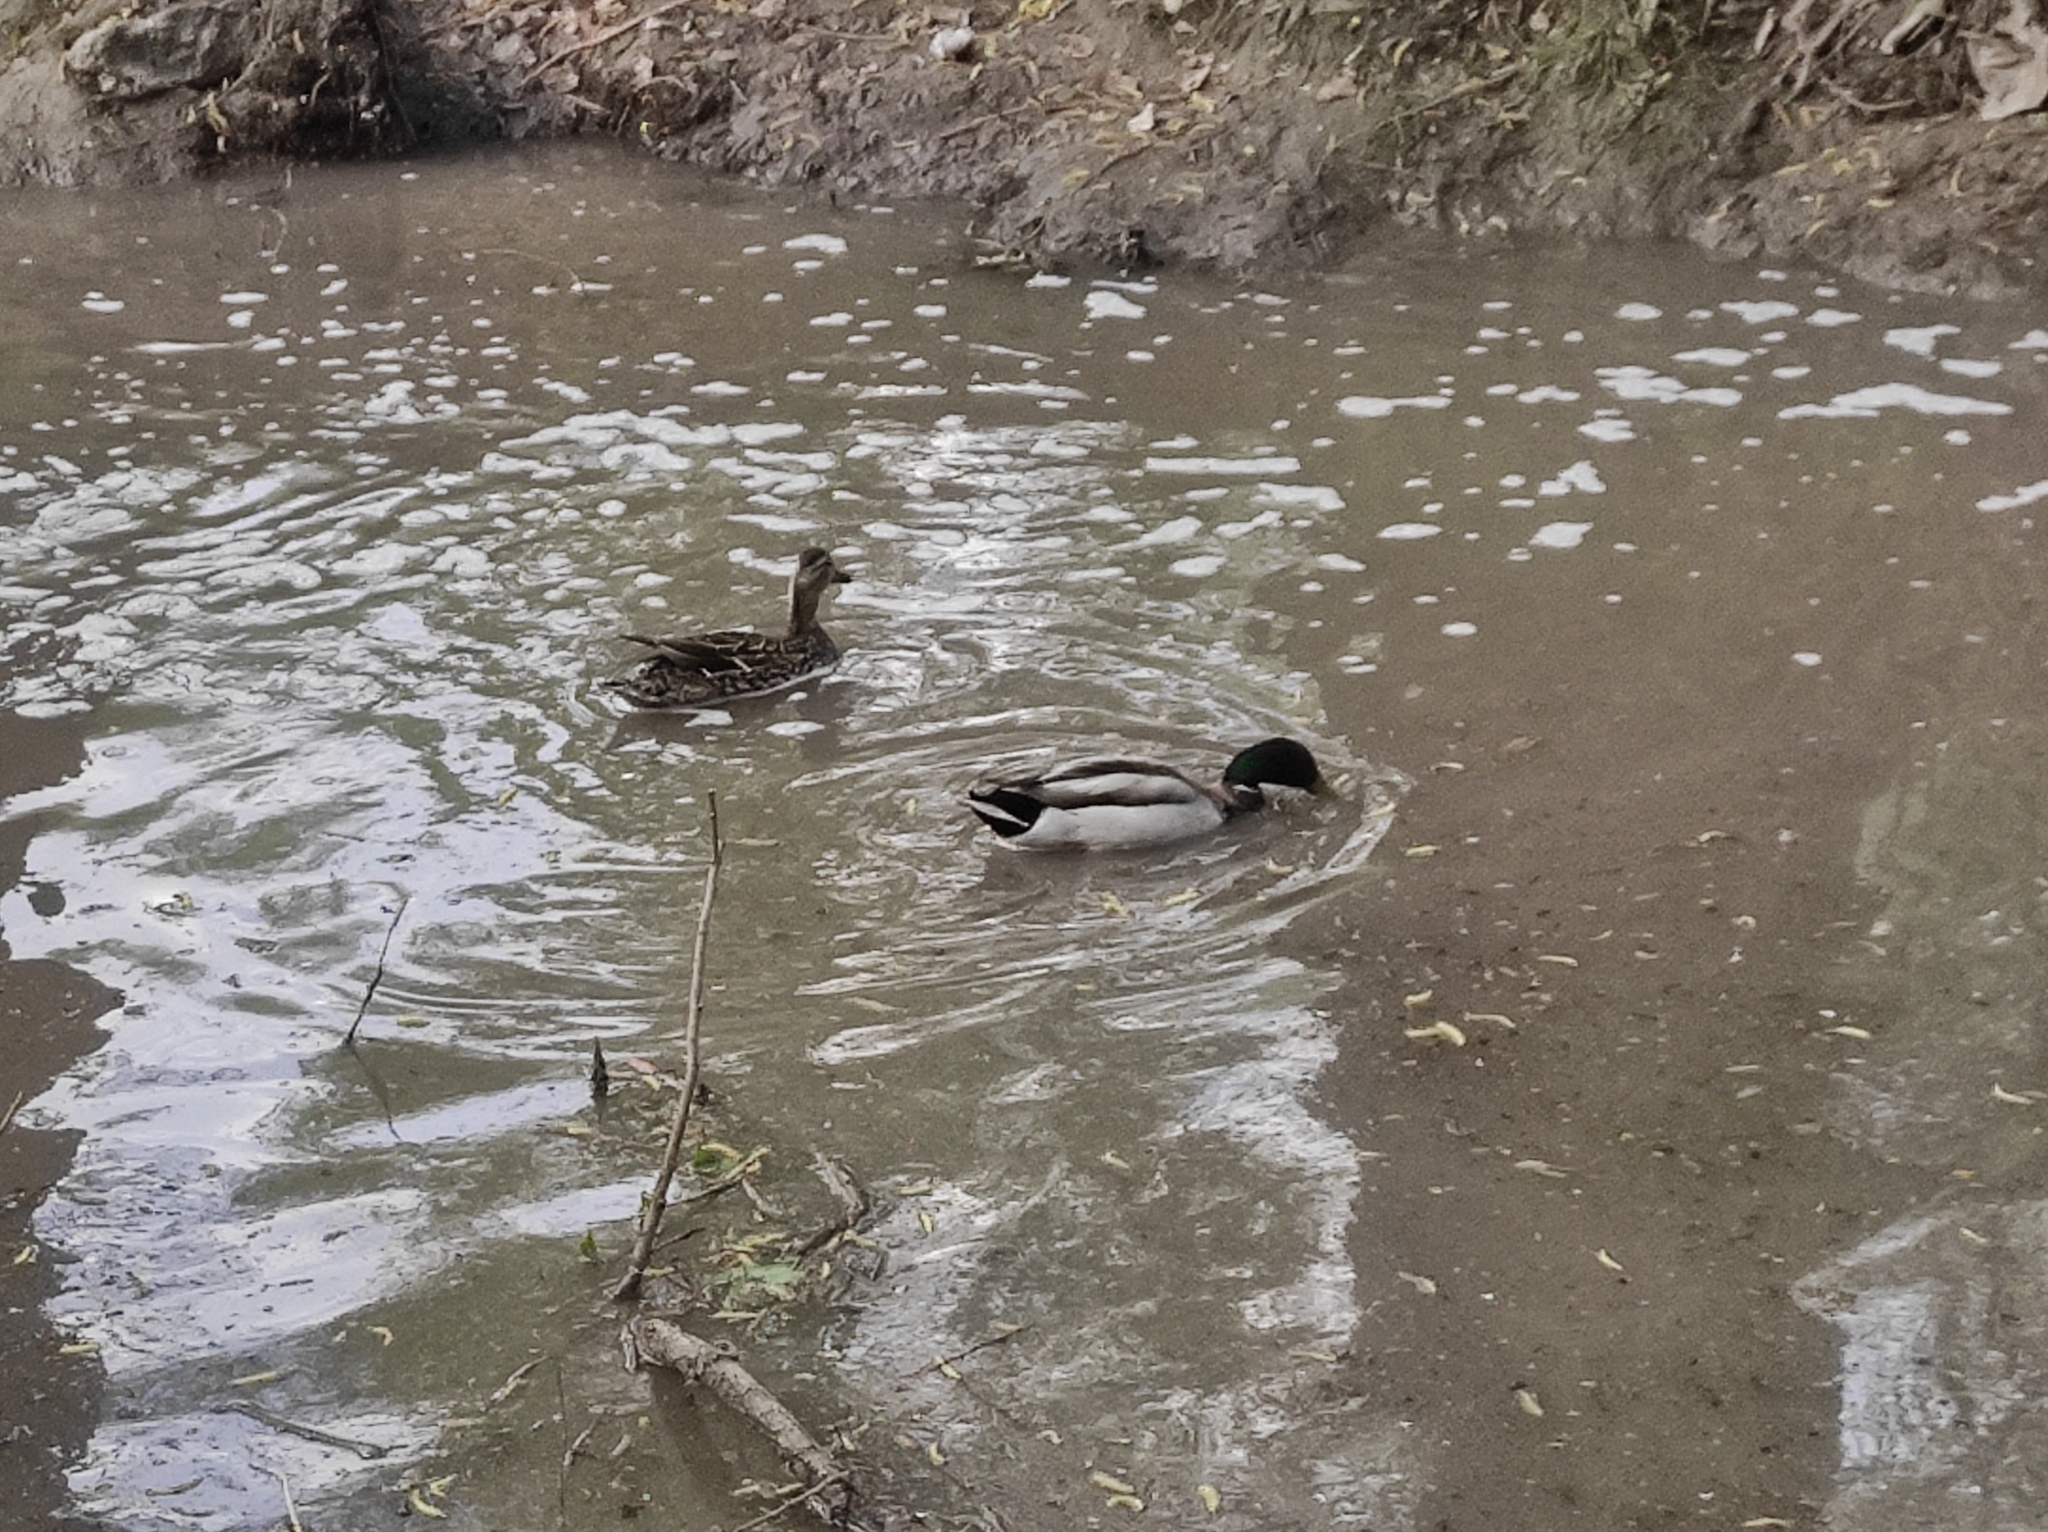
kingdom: Animalia
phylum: Chordata
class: Aves
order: Anseriformes
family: Anatidae
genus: Anas
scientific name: Anas platyrhynchos
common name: Mallard
